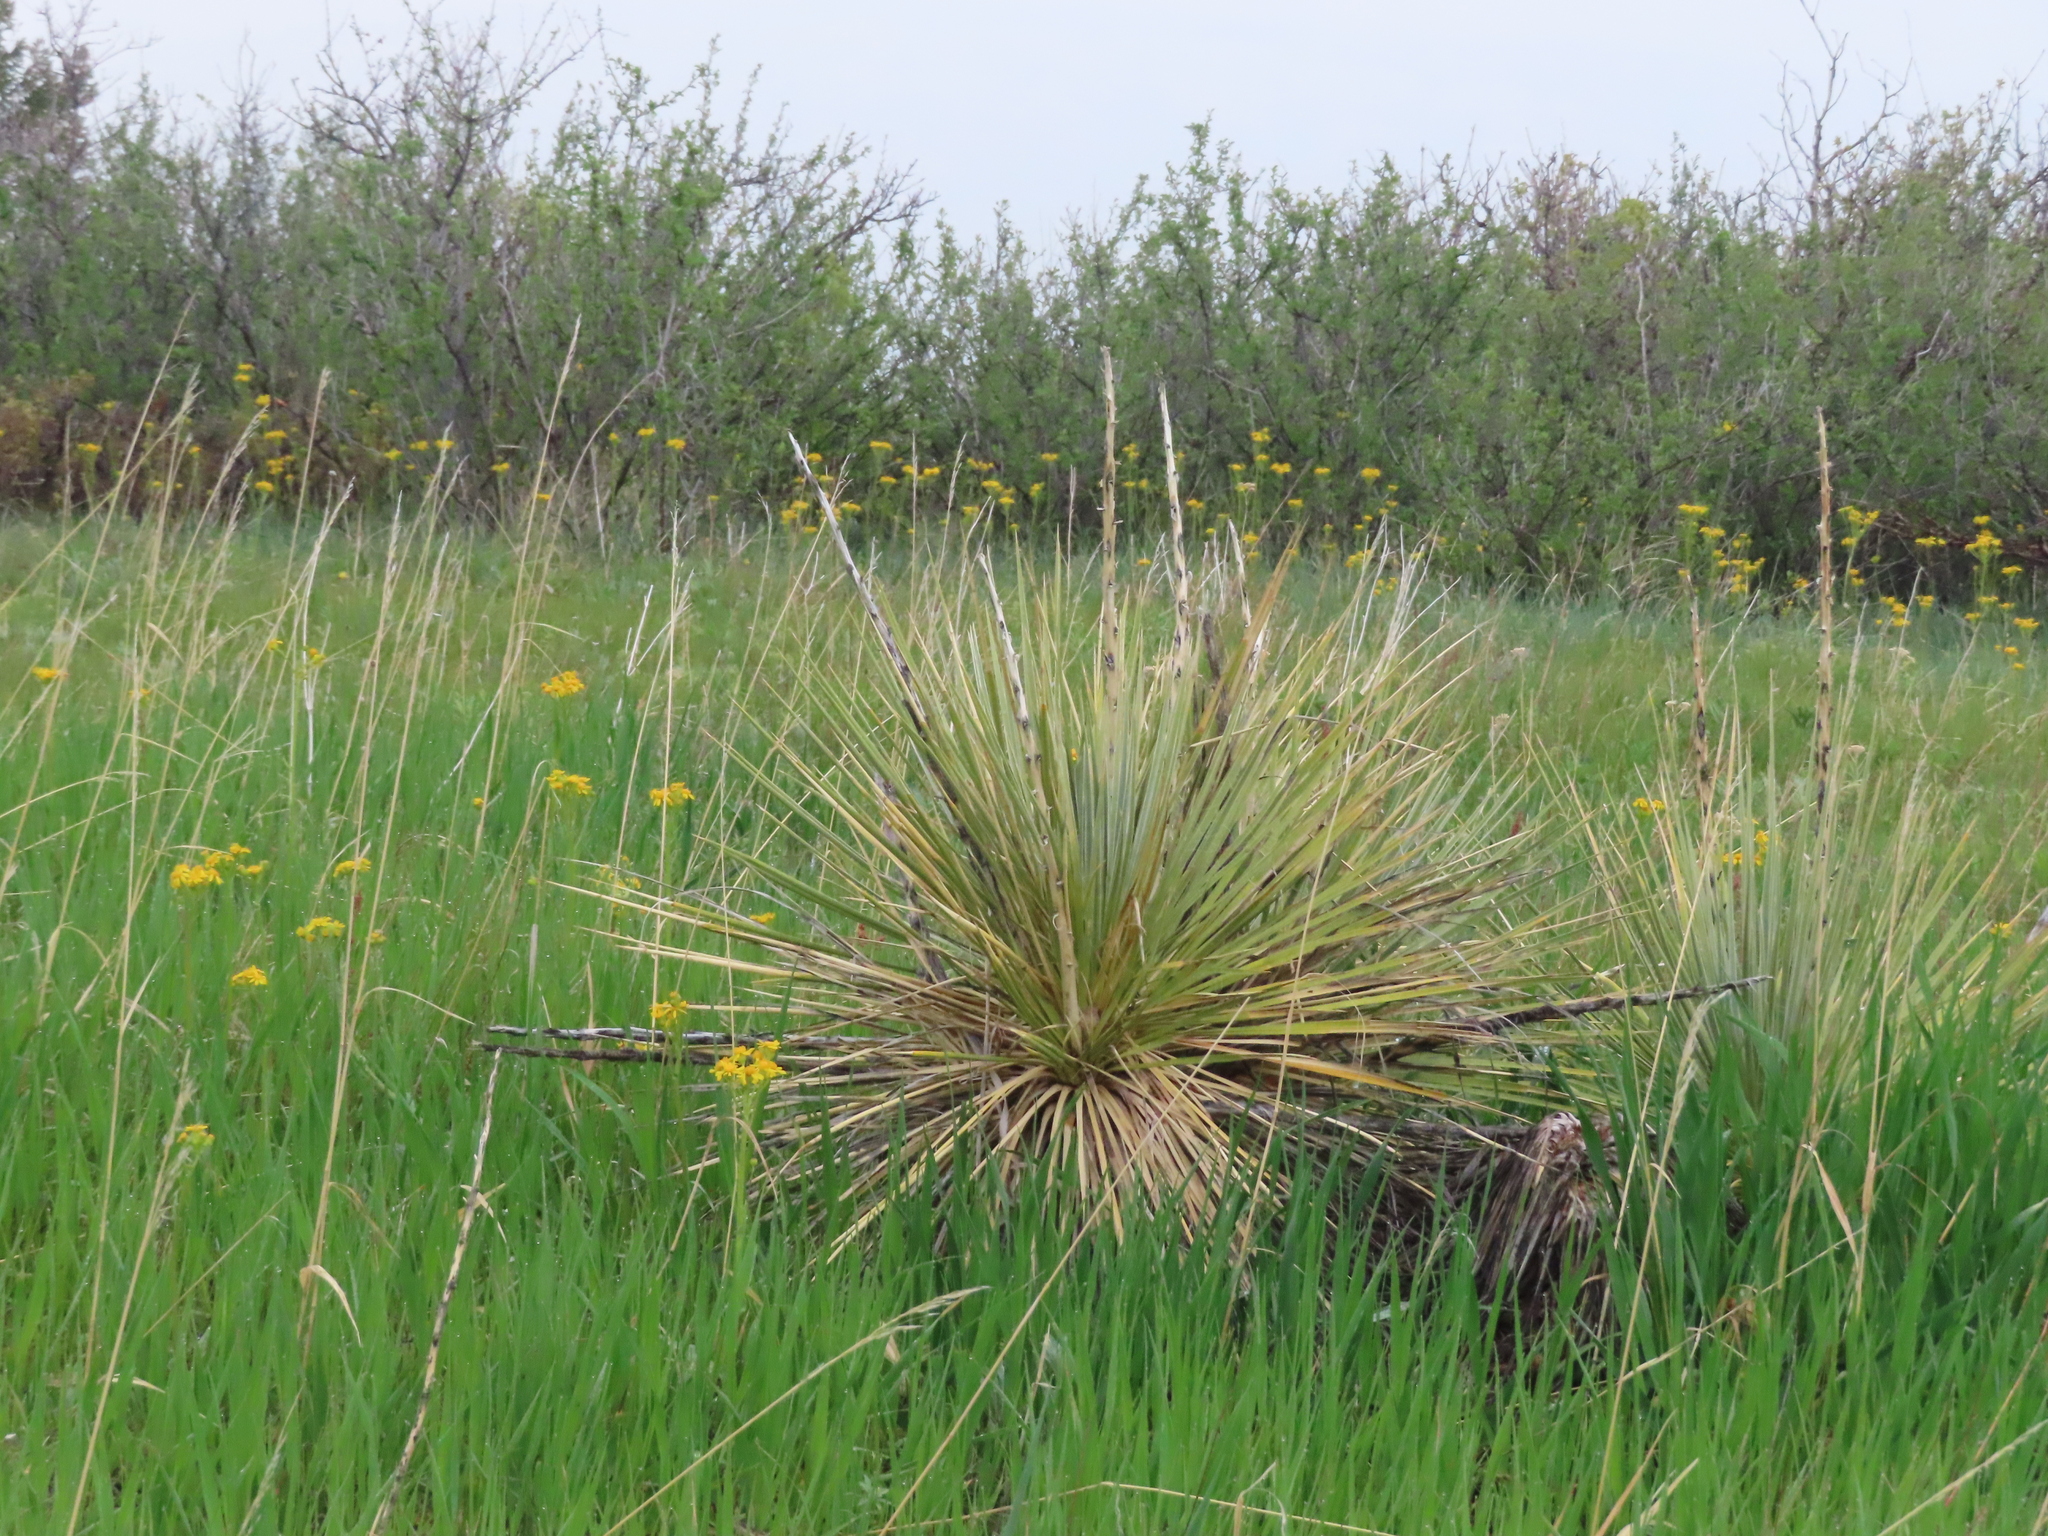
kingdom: Plantae
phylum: Tracheophyta
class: Liliopsida
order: Asparagales
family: Asparagaceae
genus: Yucca
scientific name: Yucca glauca
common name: Great plains yucca
